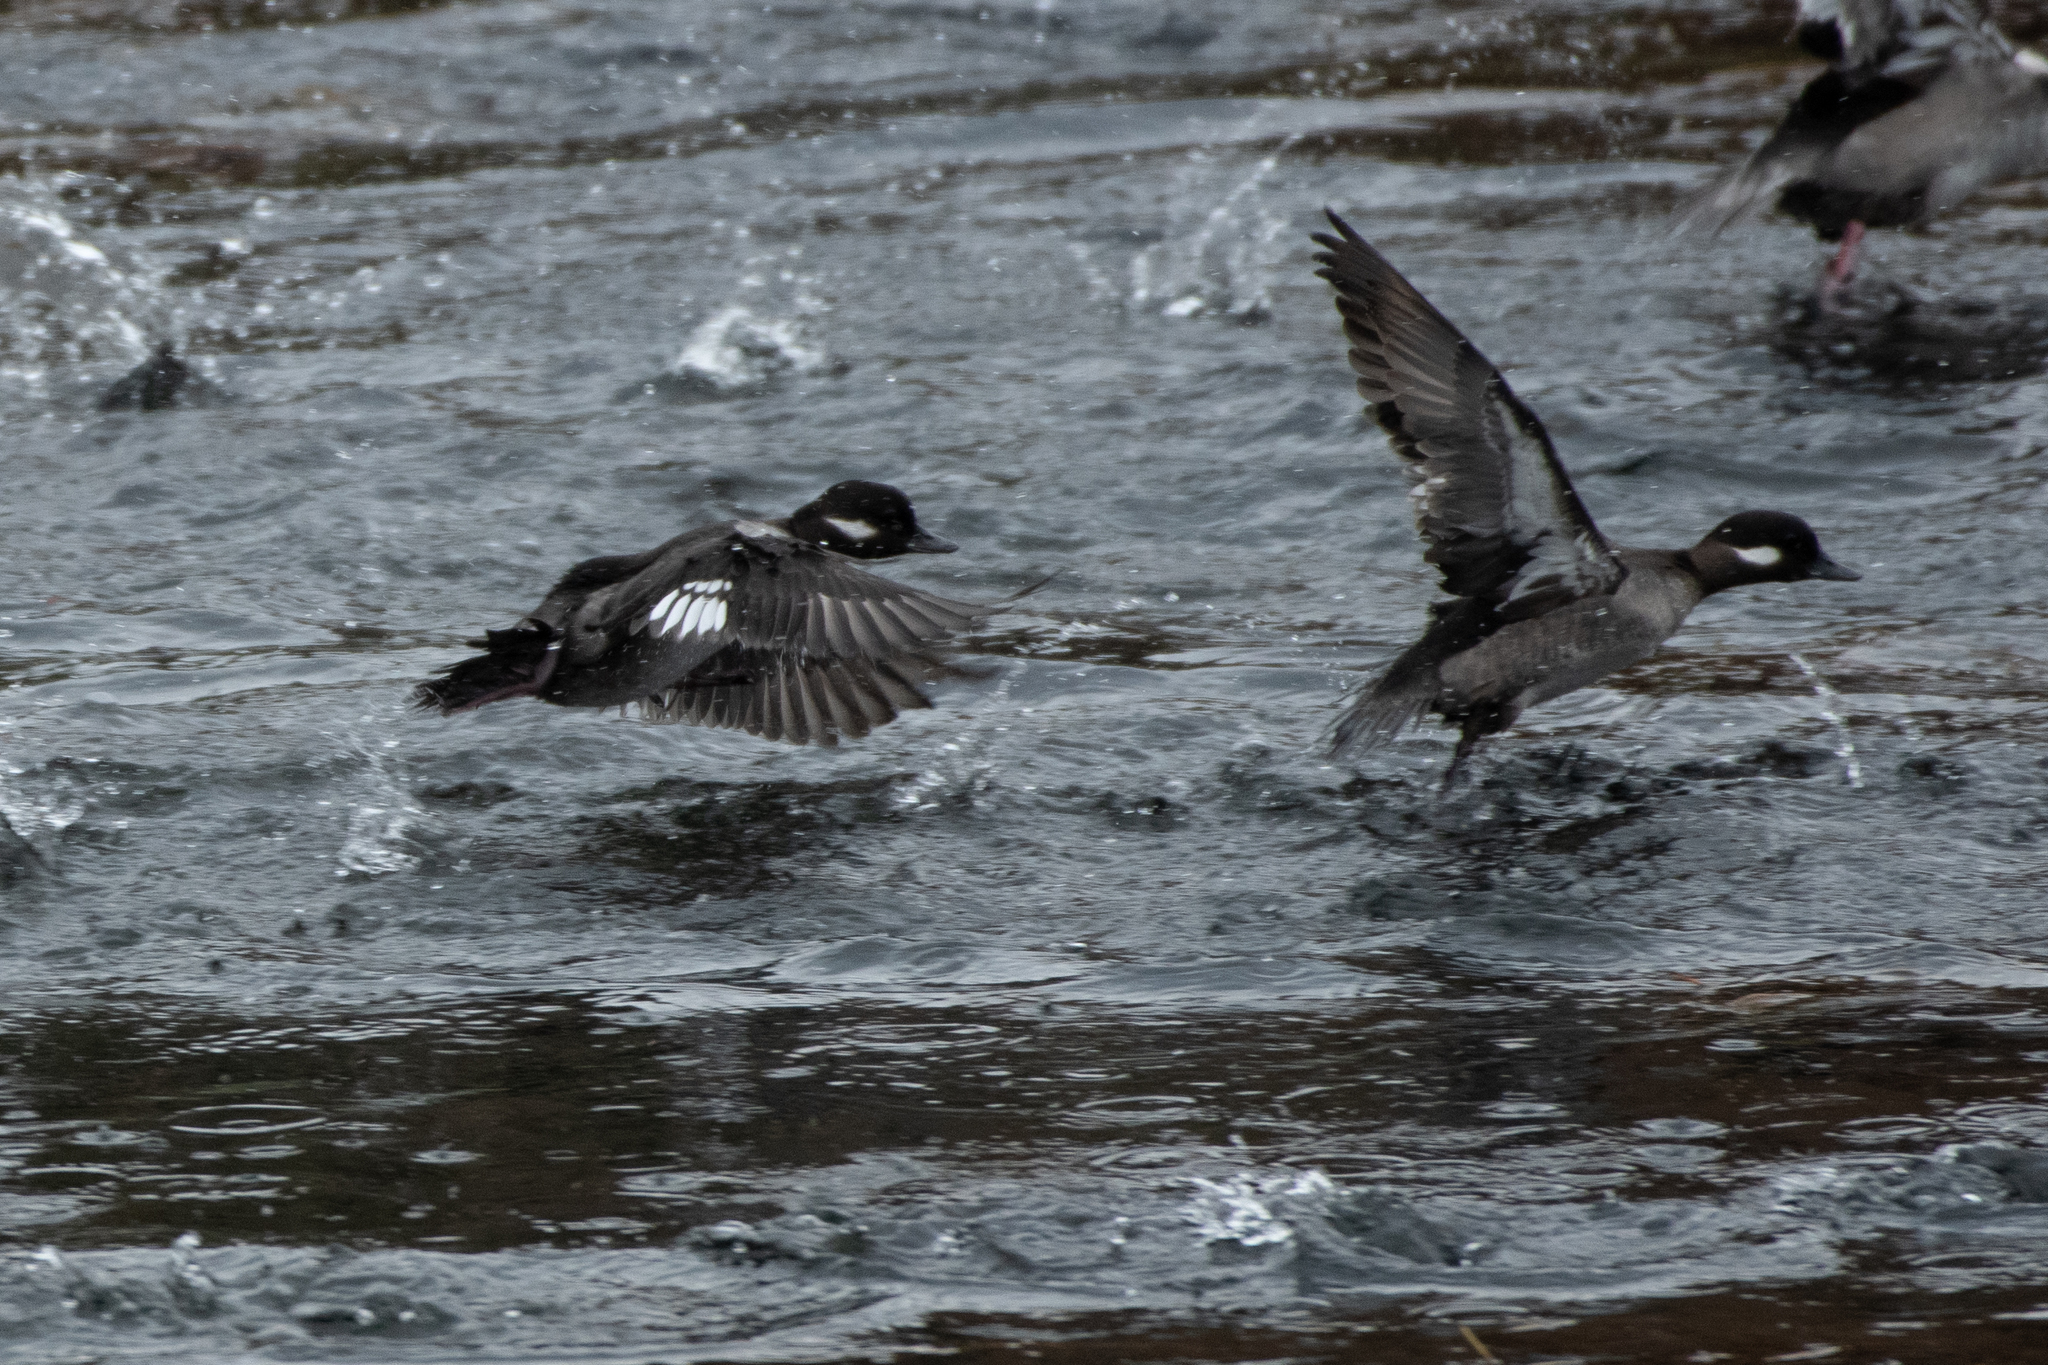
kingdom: Animalia
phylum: Chordata
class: Aves
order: Anseriformes
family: Anatidae
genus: Bucephala
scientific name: Bucephala albeola
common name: Bufflehead
